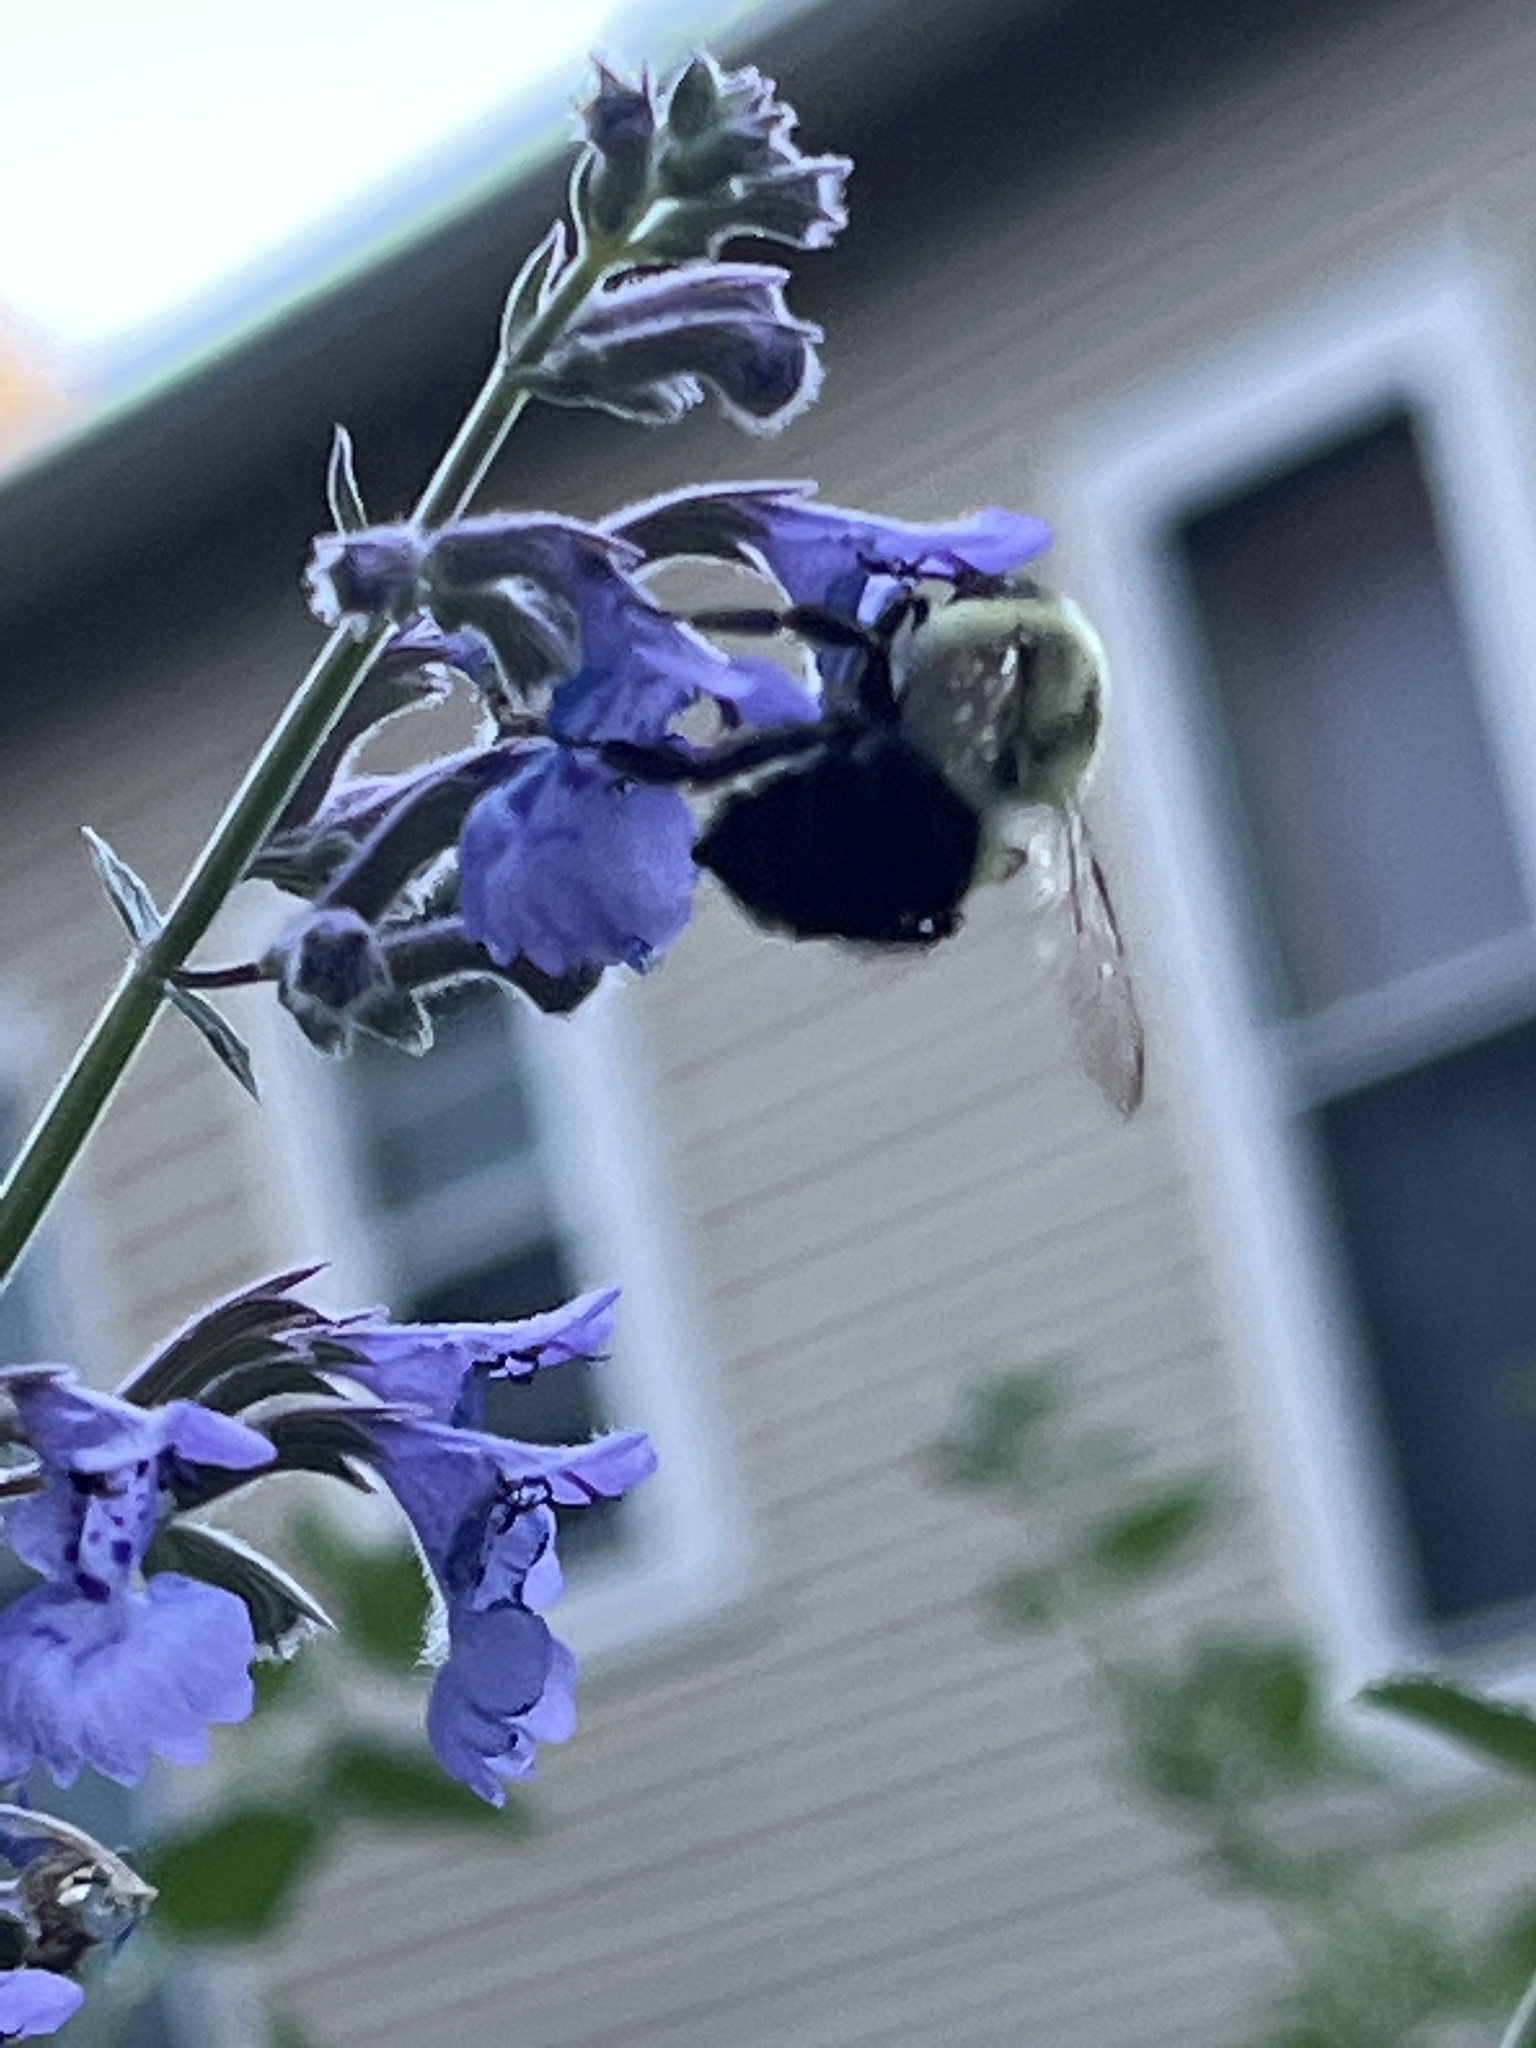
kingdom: Animalia
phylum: Arthropoda
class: Insecta
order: Hymenoptera
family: Apidae
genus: Bombus
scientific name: Bombus impatiens
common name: Common eastern bumble bee
